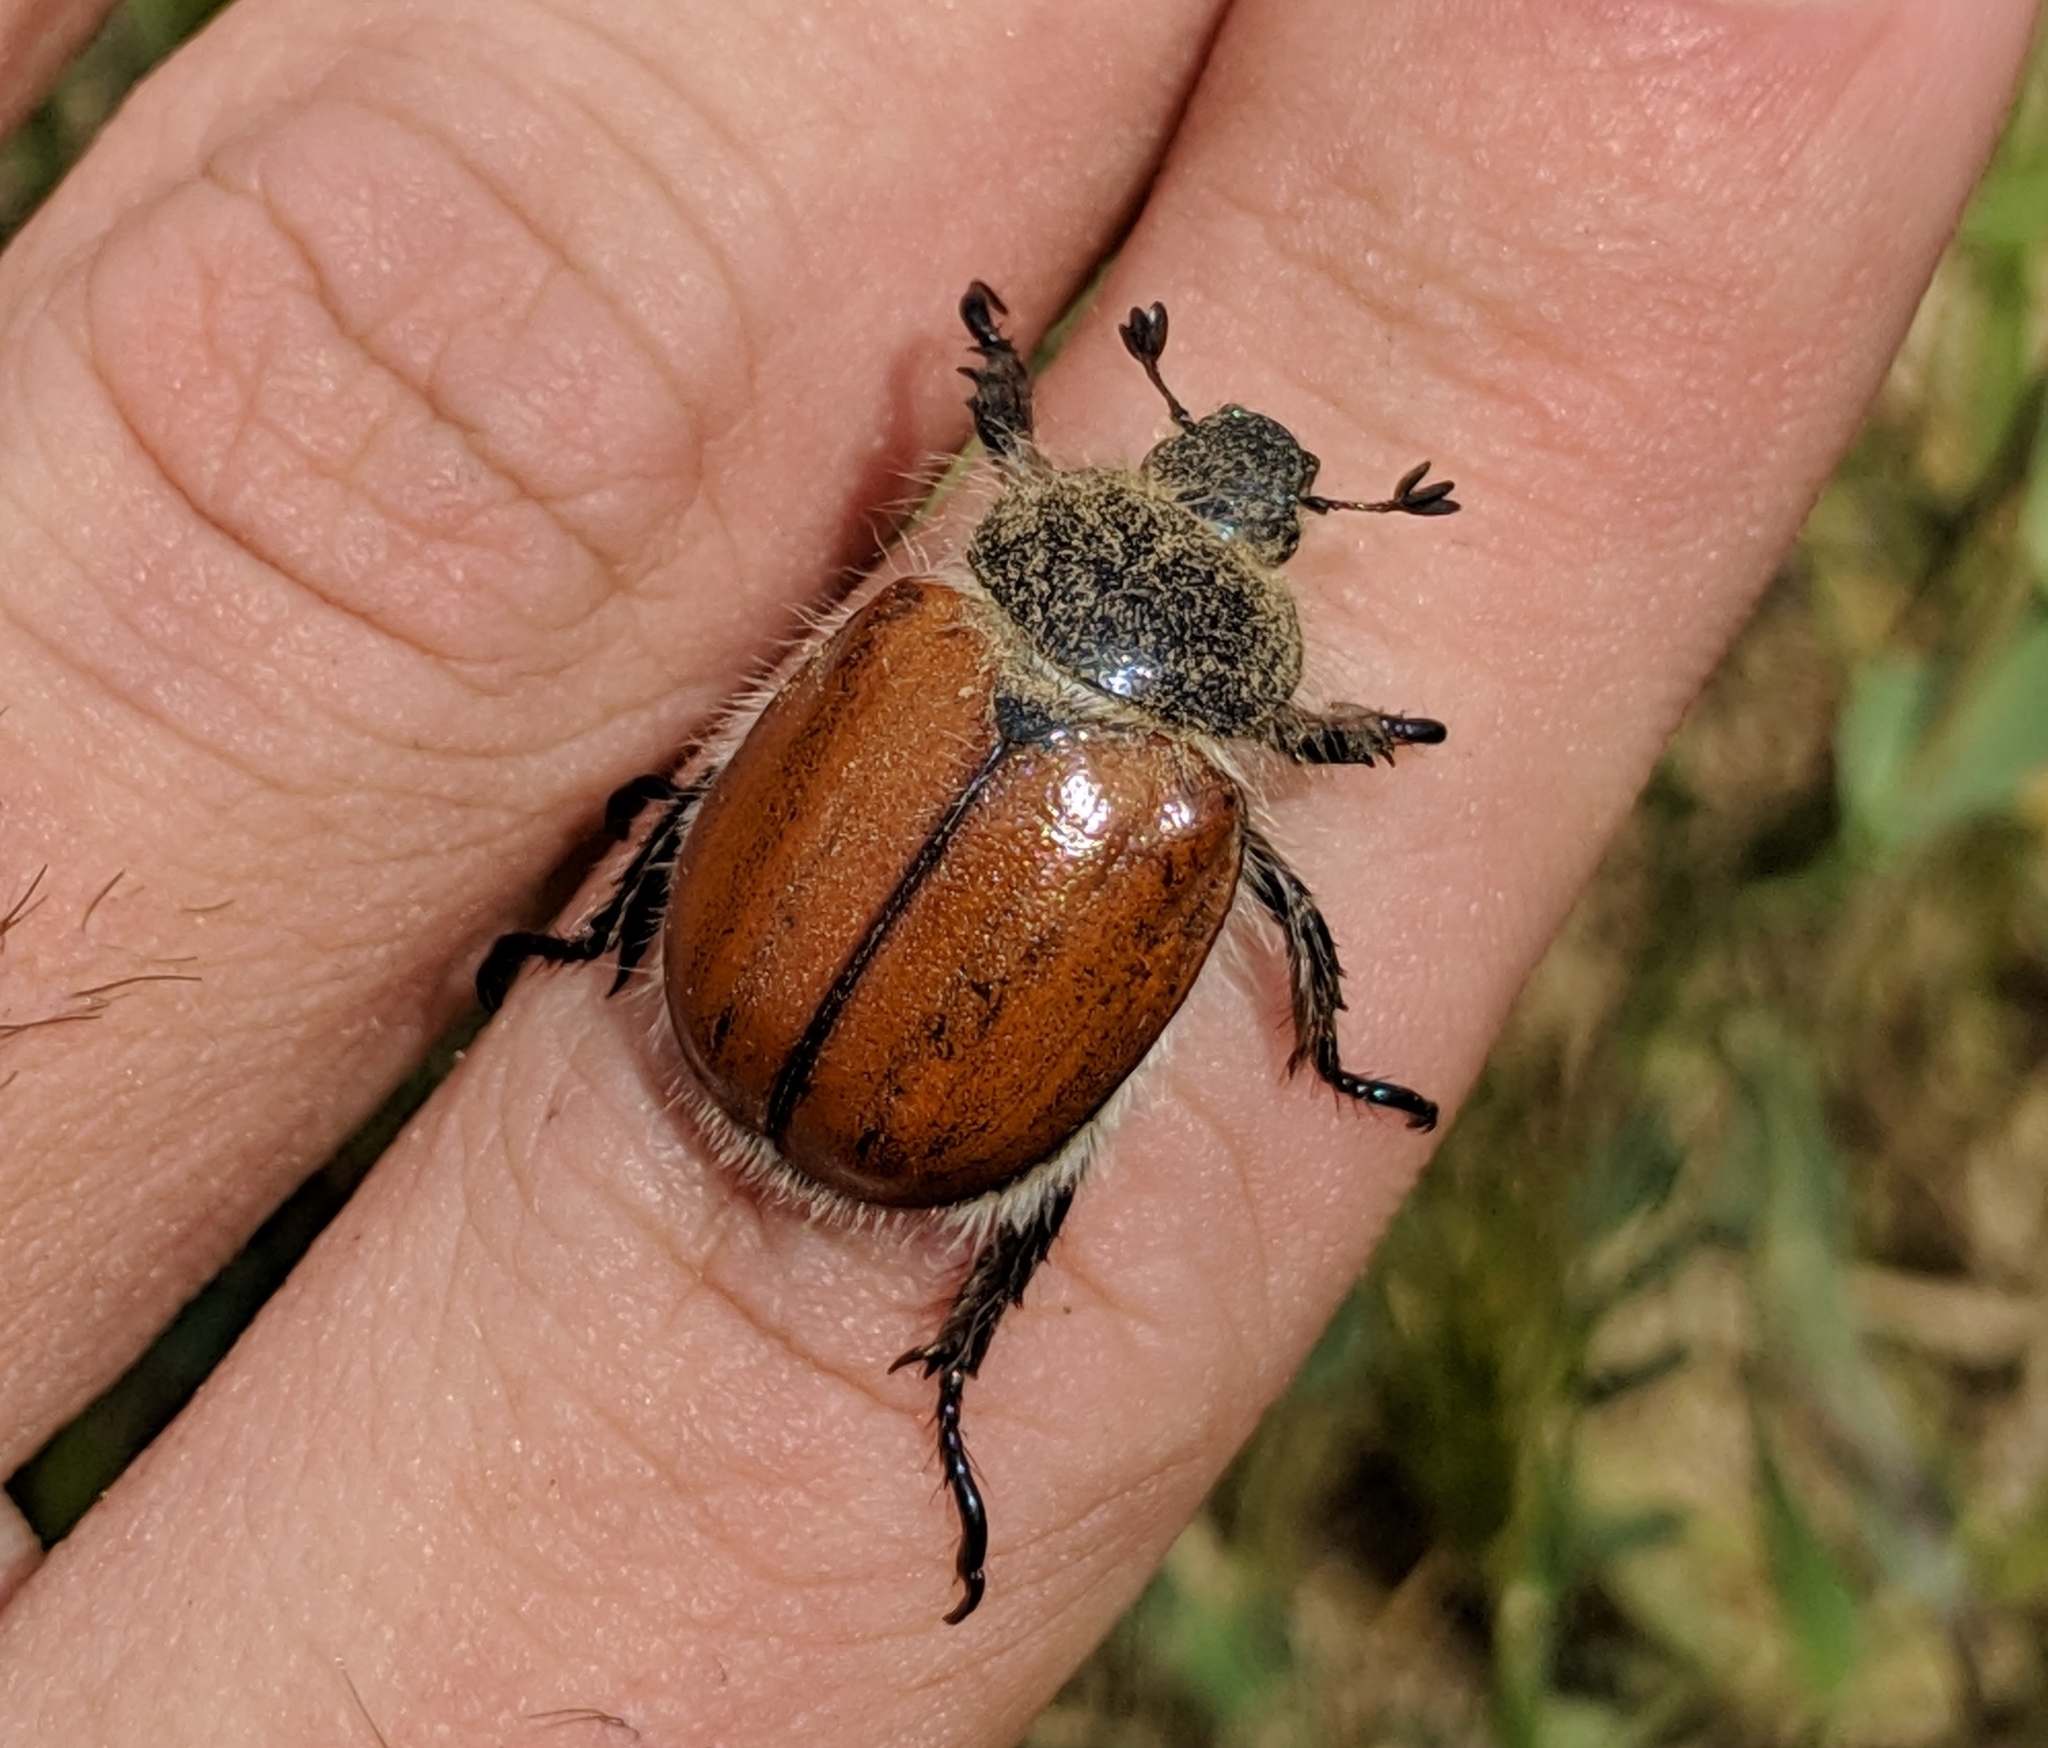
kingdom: Animalia
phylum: Arthropoda
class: Insecta
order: Coleoptera
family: Scarabaeidae
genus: Paracotalpa
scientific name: Paracotalpa ursina
